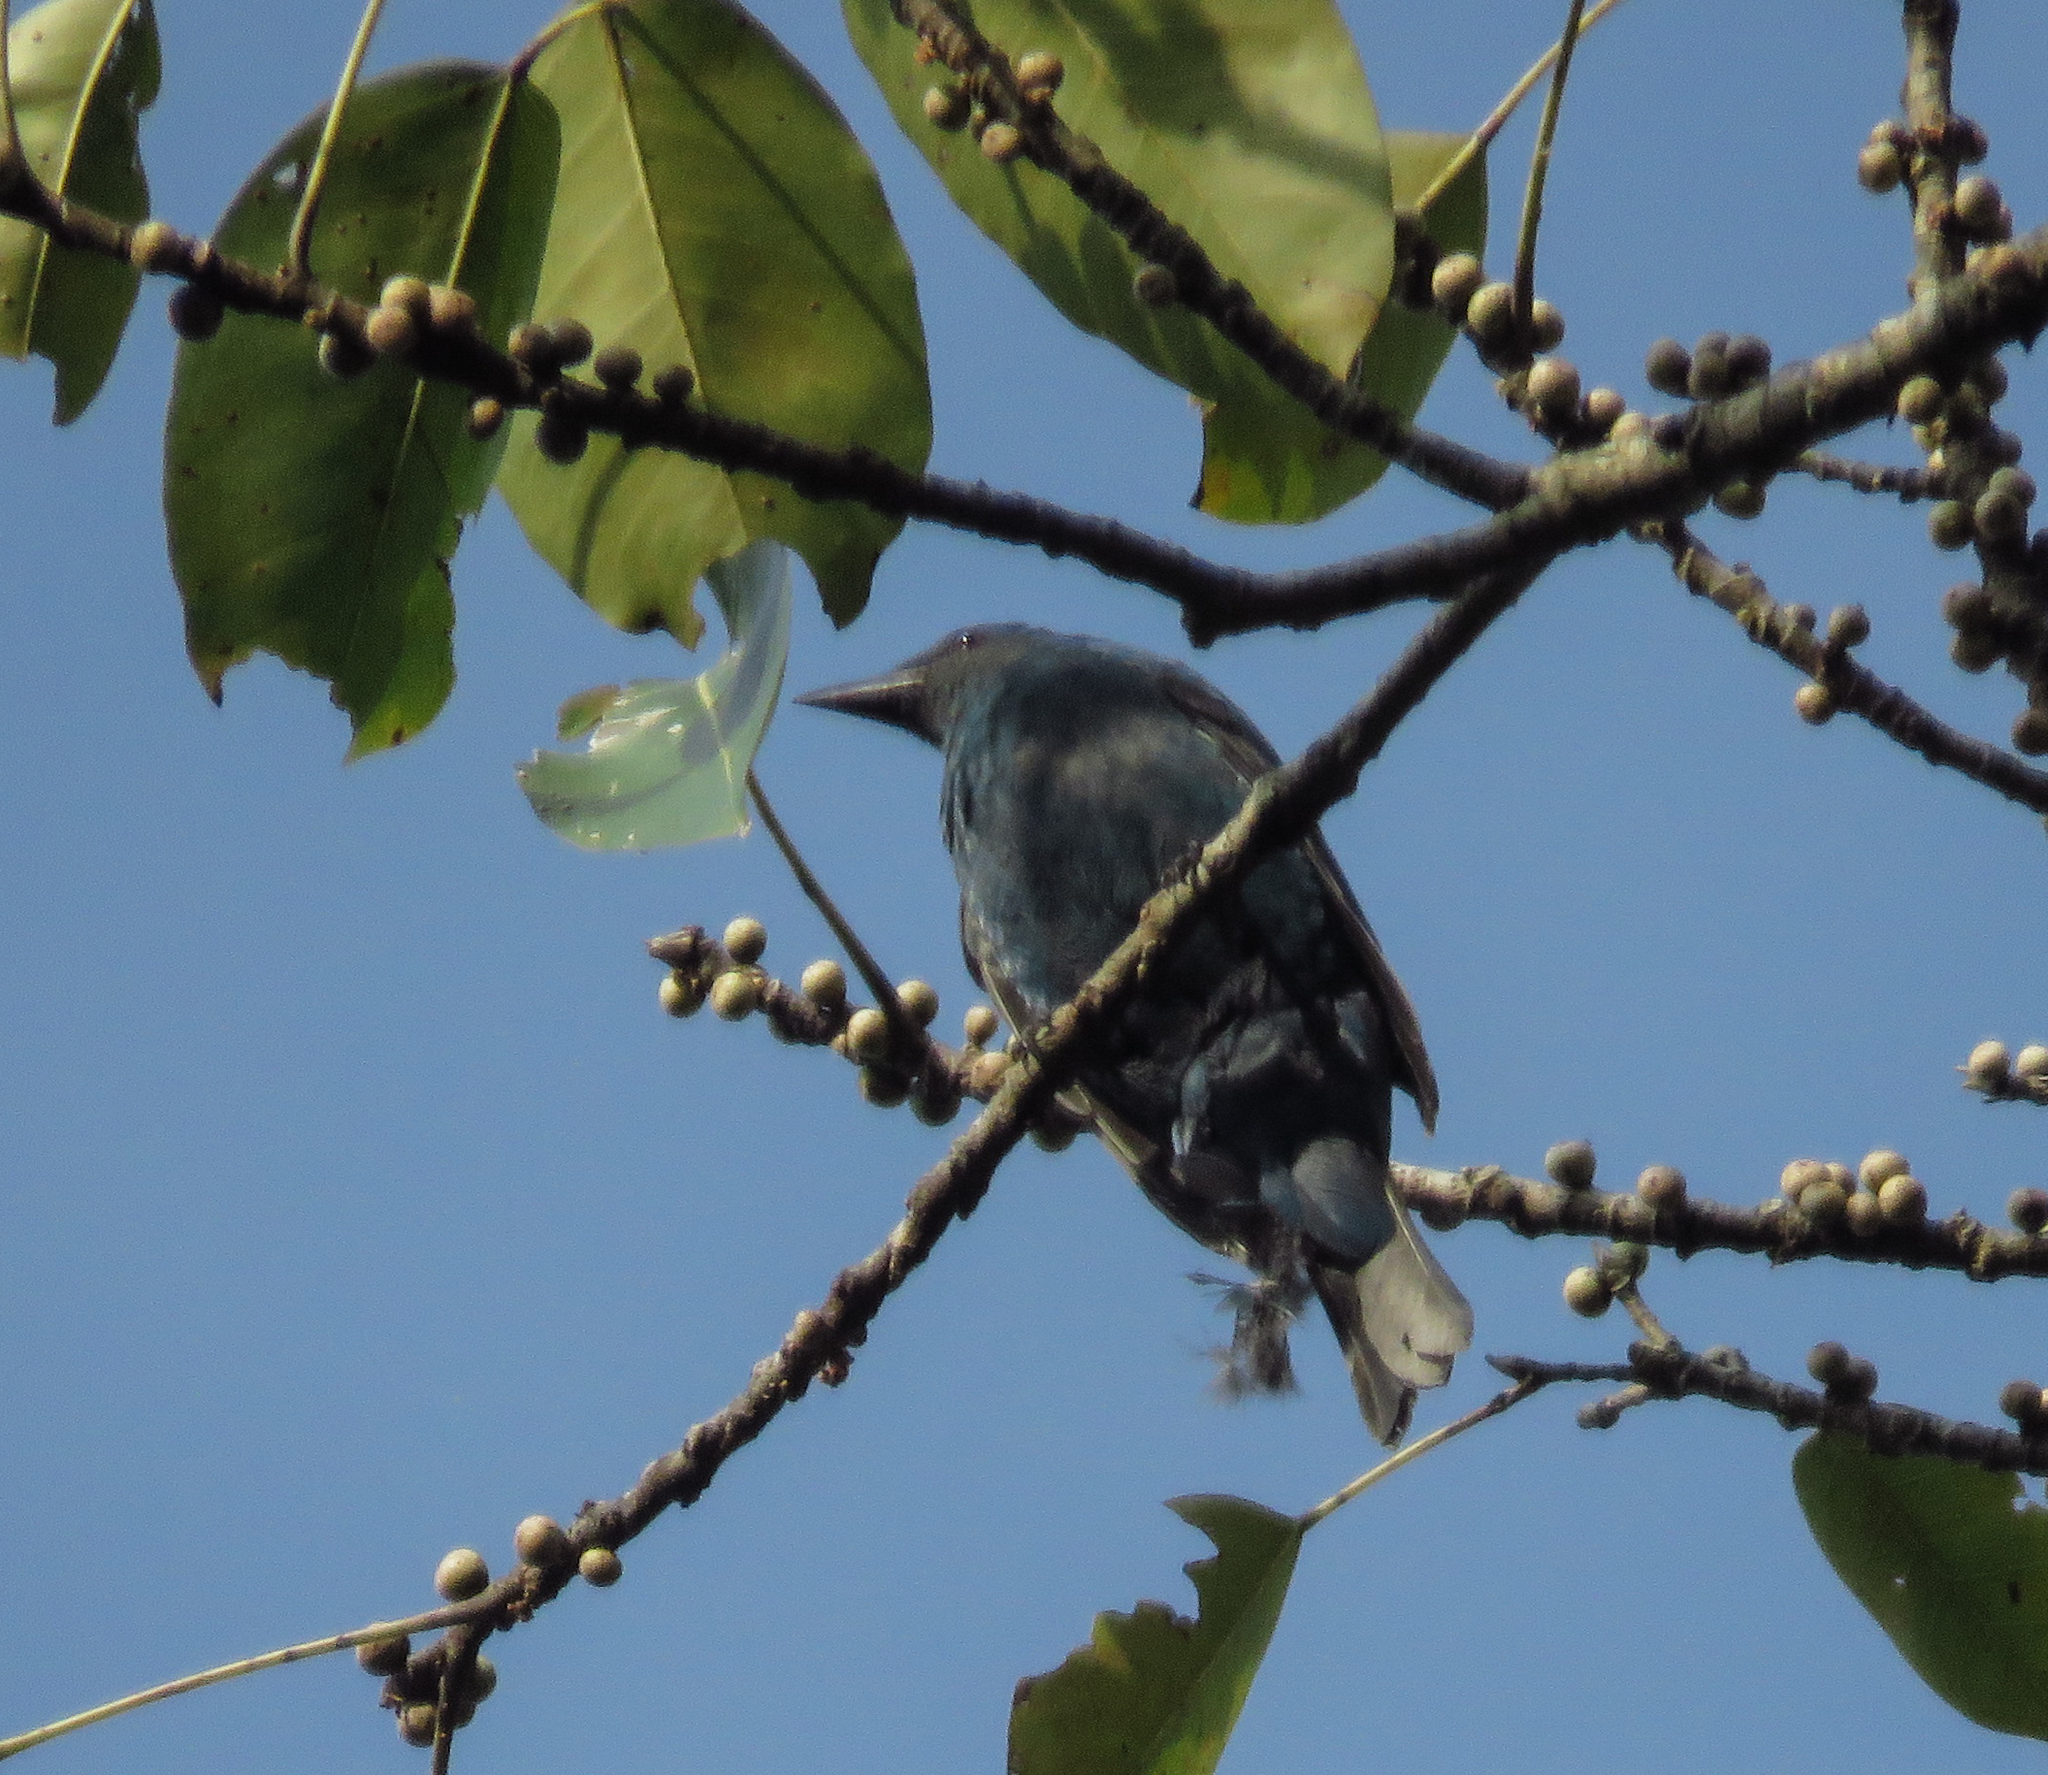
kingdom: Animalia
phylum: Chordata
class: Aves
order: Passeriformes
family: Irenidae
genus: Irena
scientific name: Irena puella
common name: Asian fairy-bluebird
